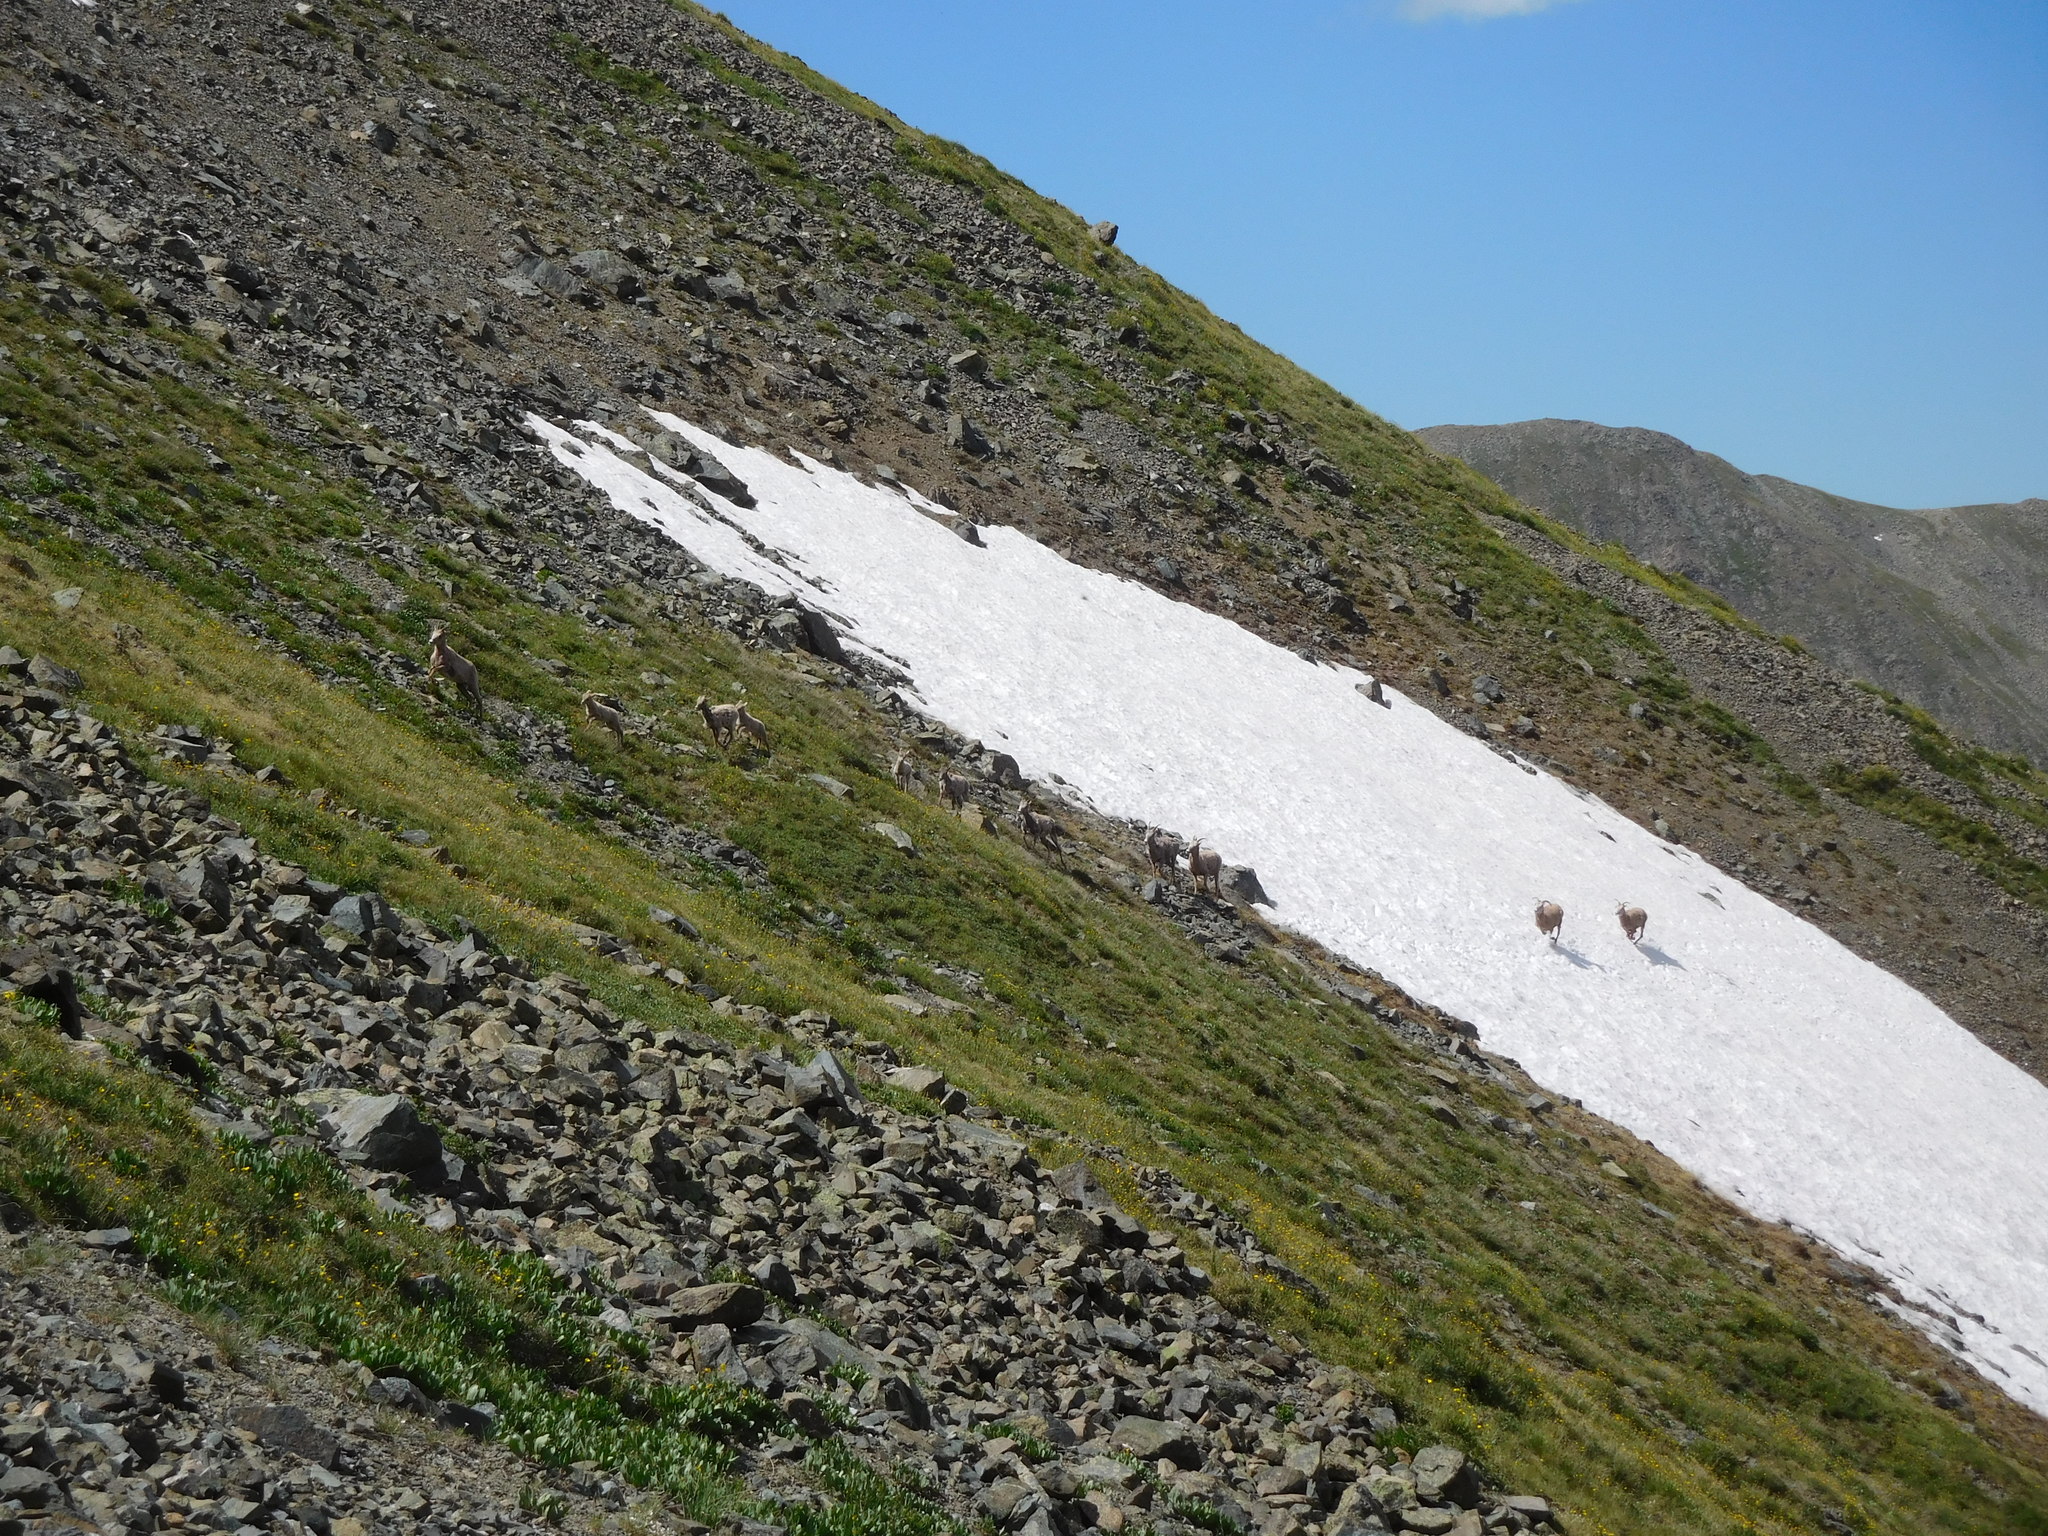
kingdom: Animalia
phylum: Chordata
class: Mammalia
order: Artiodactyla
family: Bovidae
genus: Ovis
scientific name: Ovis canadensis
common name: Bighorn sheep
